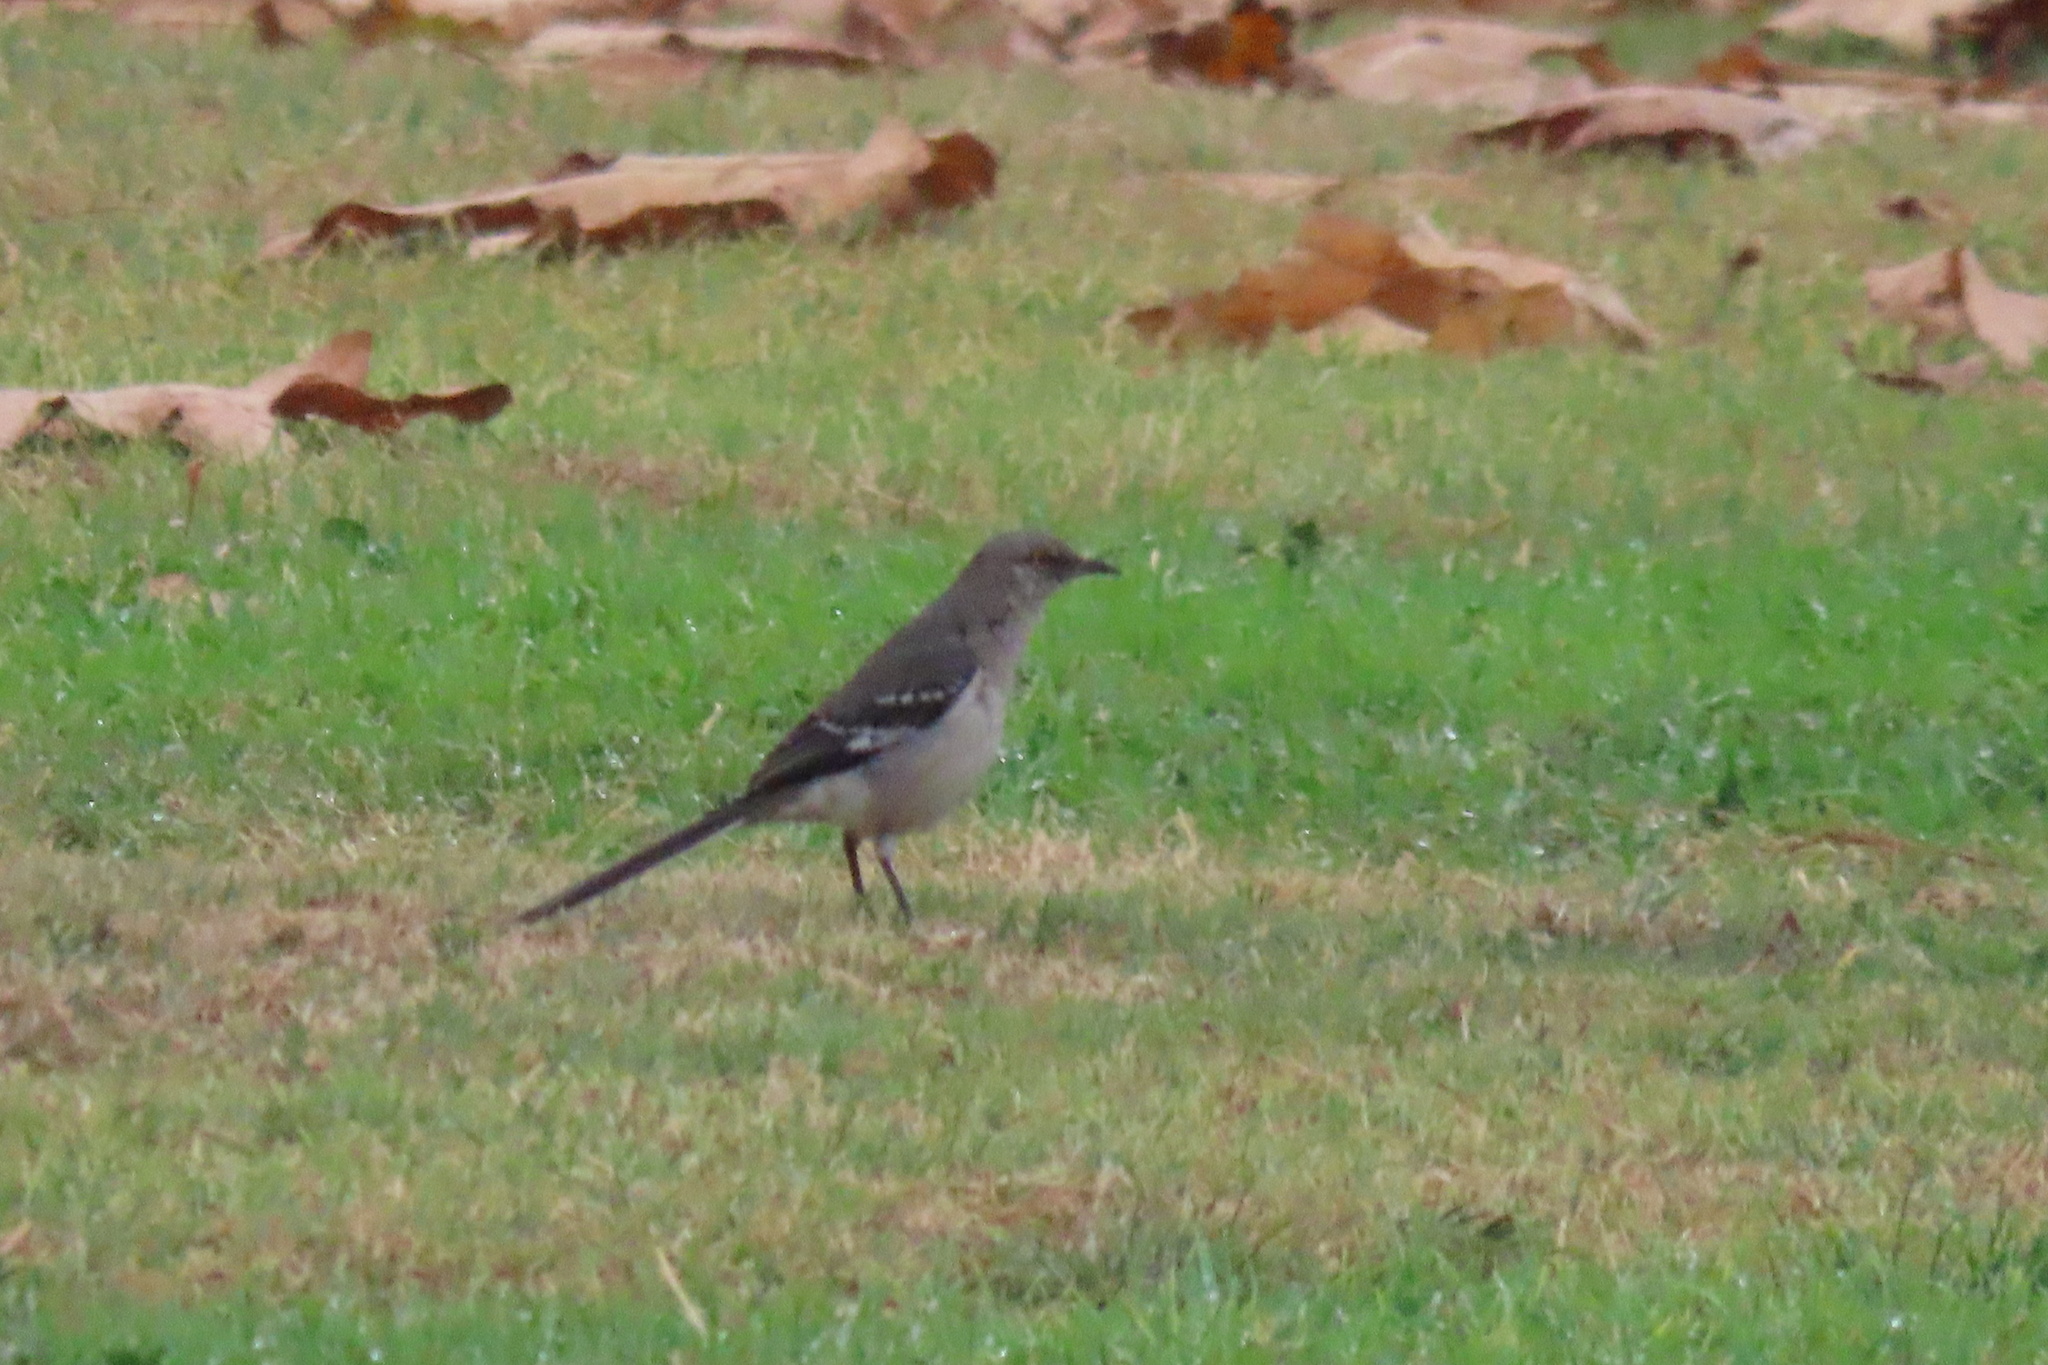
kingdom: Animalia
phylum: Chordata
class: Aves
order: Passeriformes
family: Mimidae
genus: Mimus
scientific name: Mimus polyglottos
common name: Northern mockingbird
